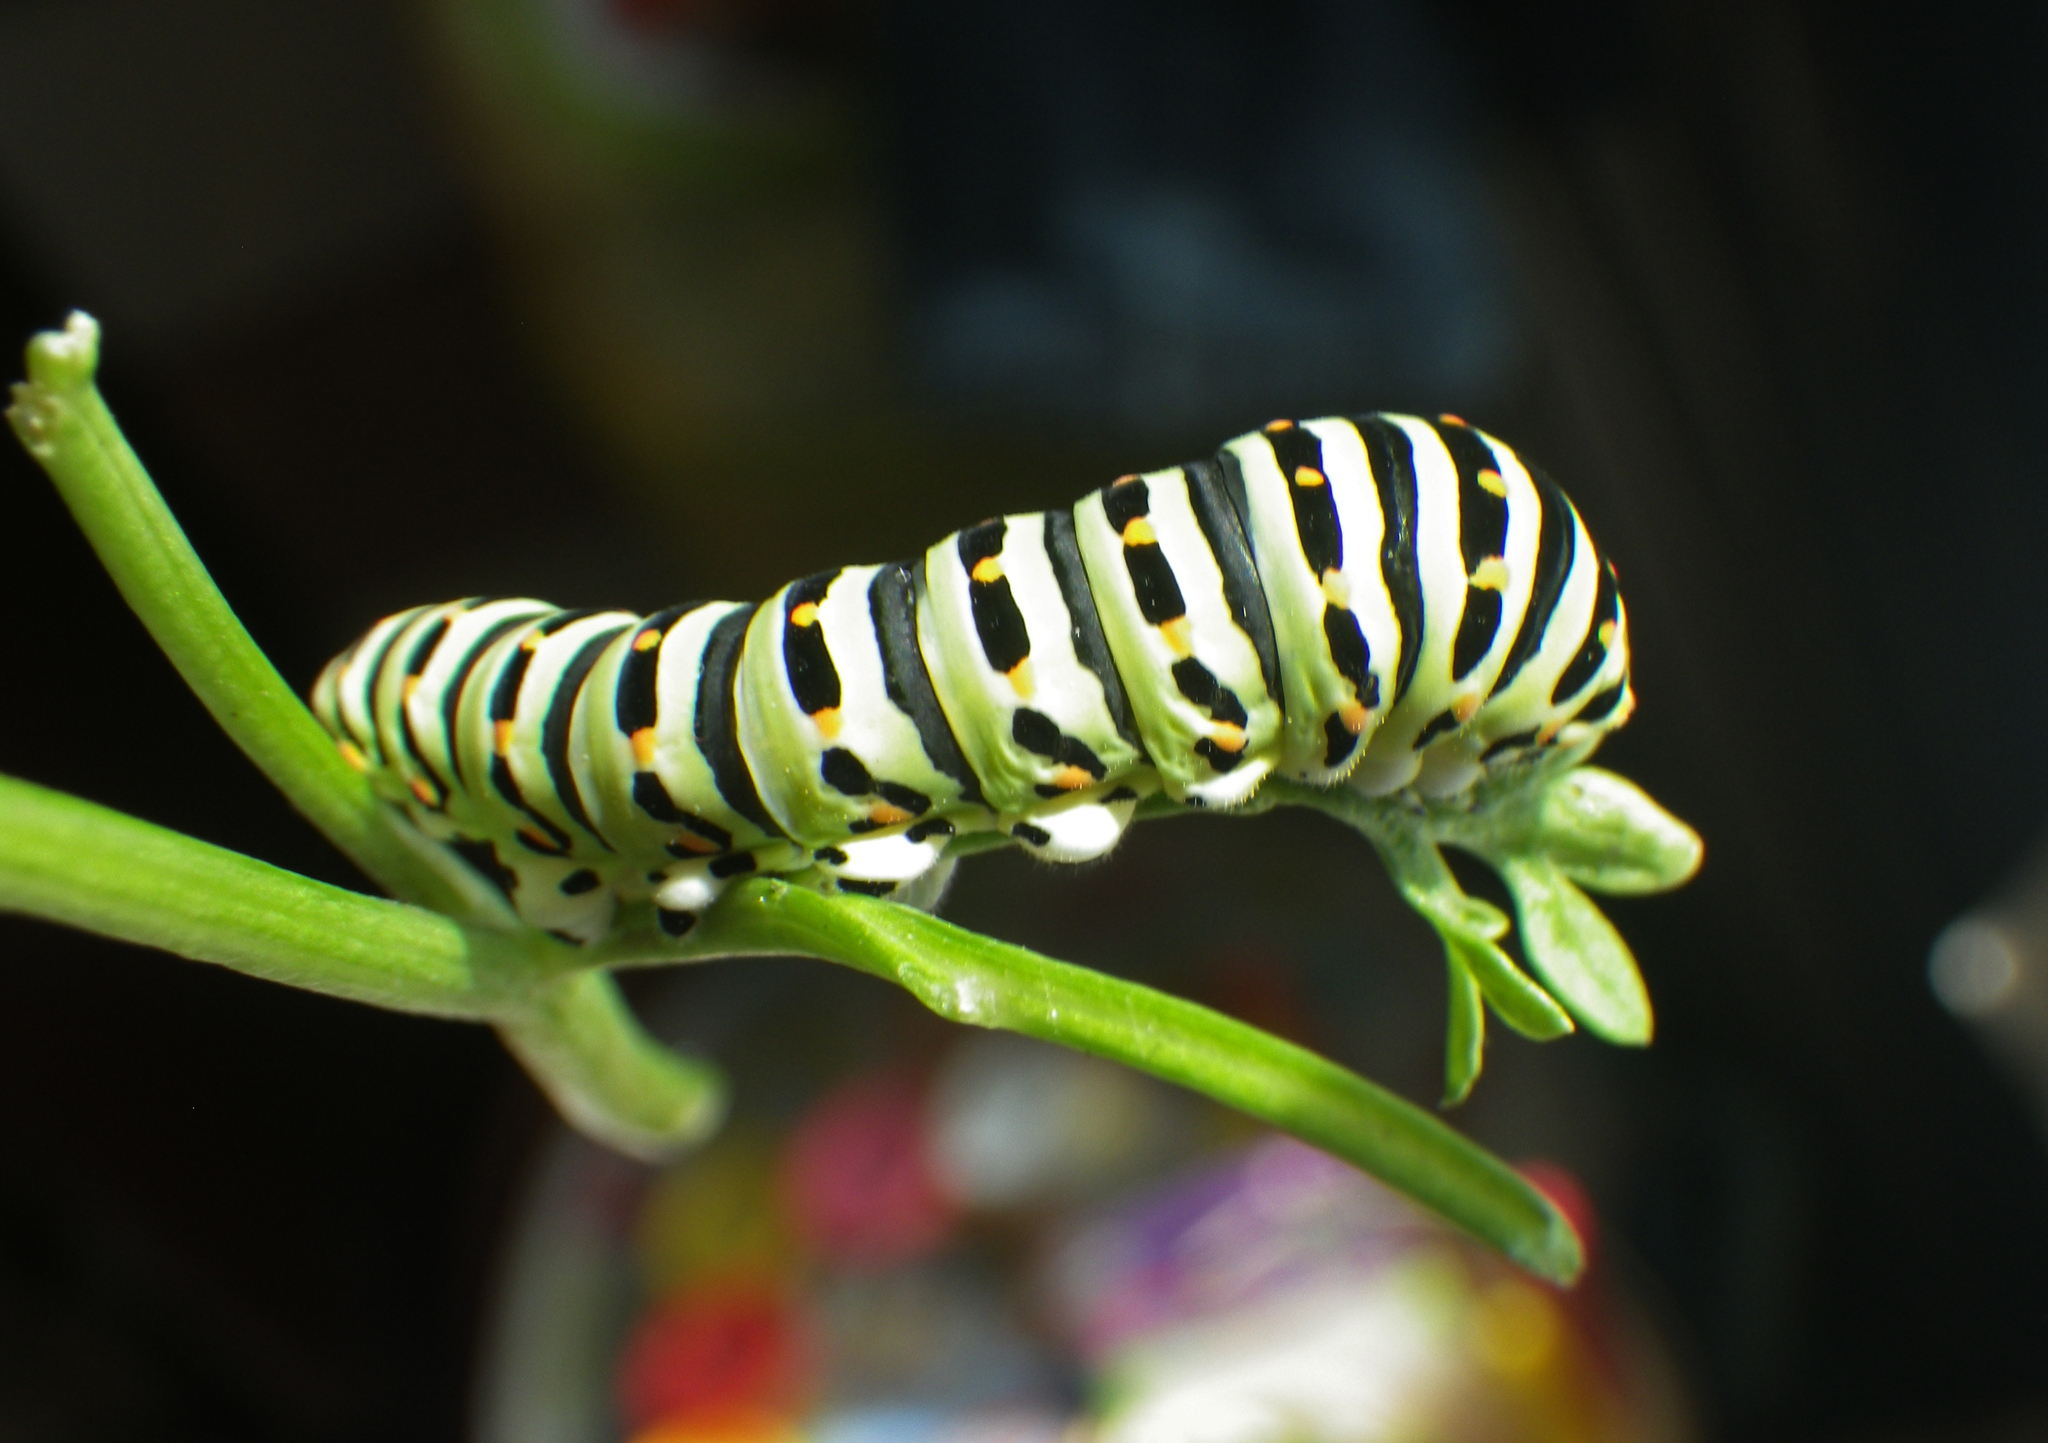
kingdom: Animalia
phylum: Arthropoda
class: Insecta
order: Lepidoptera
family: Papilionidae
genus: Papilio
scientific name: Papilio machaon
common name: Swallowtail
